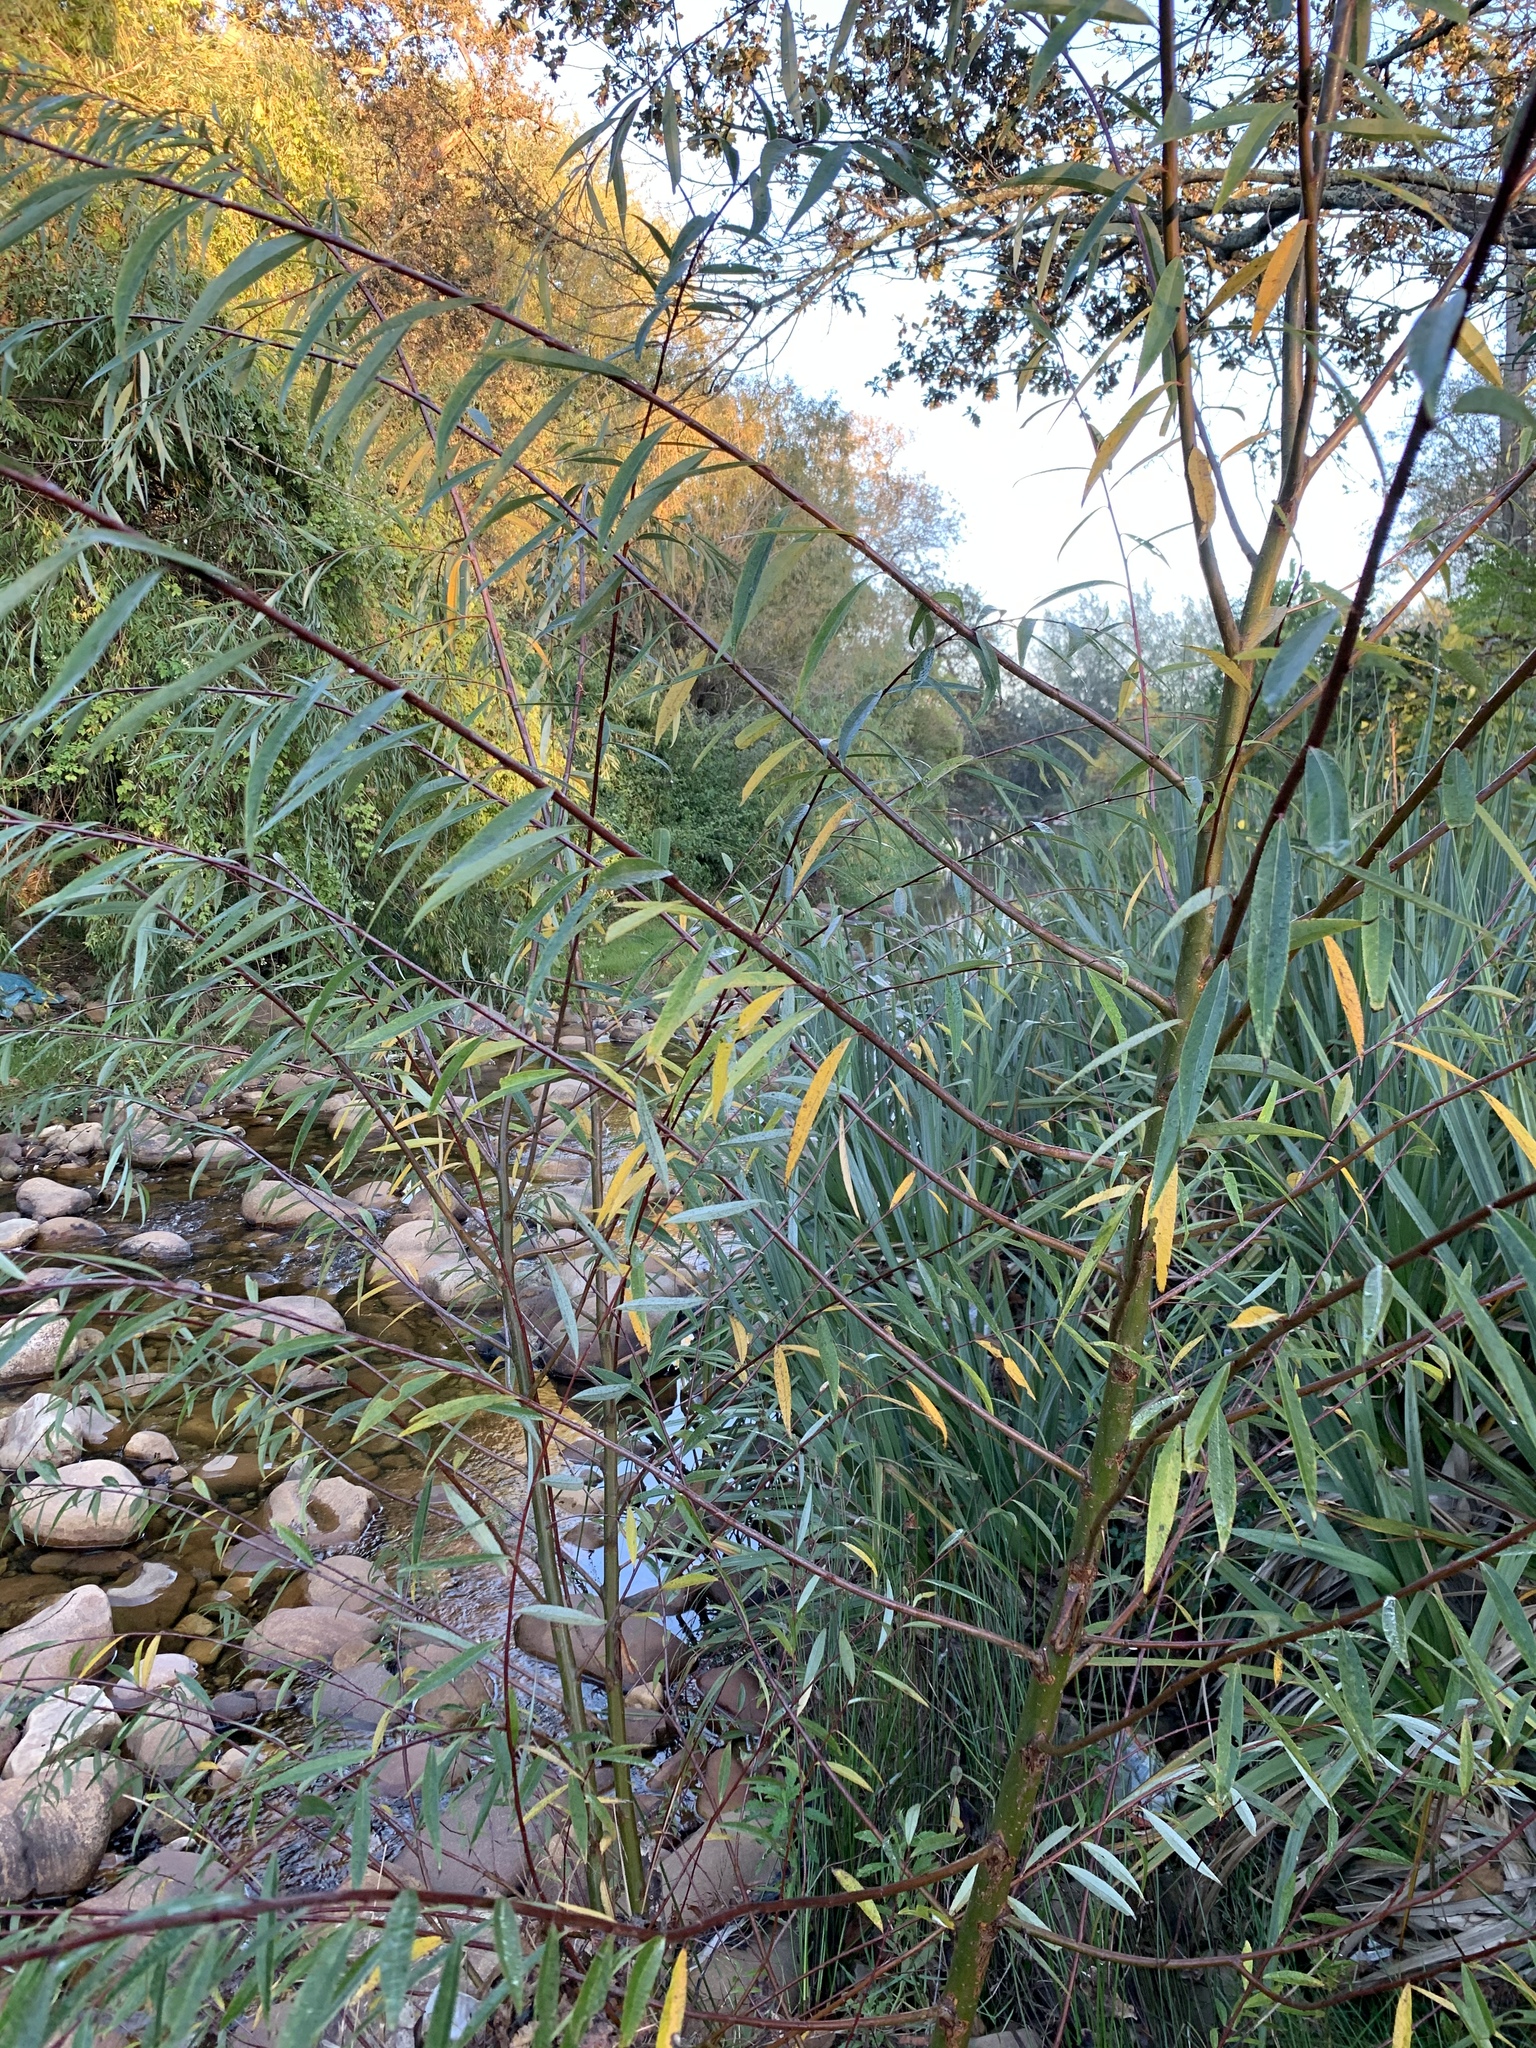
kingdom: Plantae
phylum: Tracheophyta
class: Magnoliopsida
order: Malpighiales
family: Salicaceae
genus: Salix
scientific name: Salix mucronata
